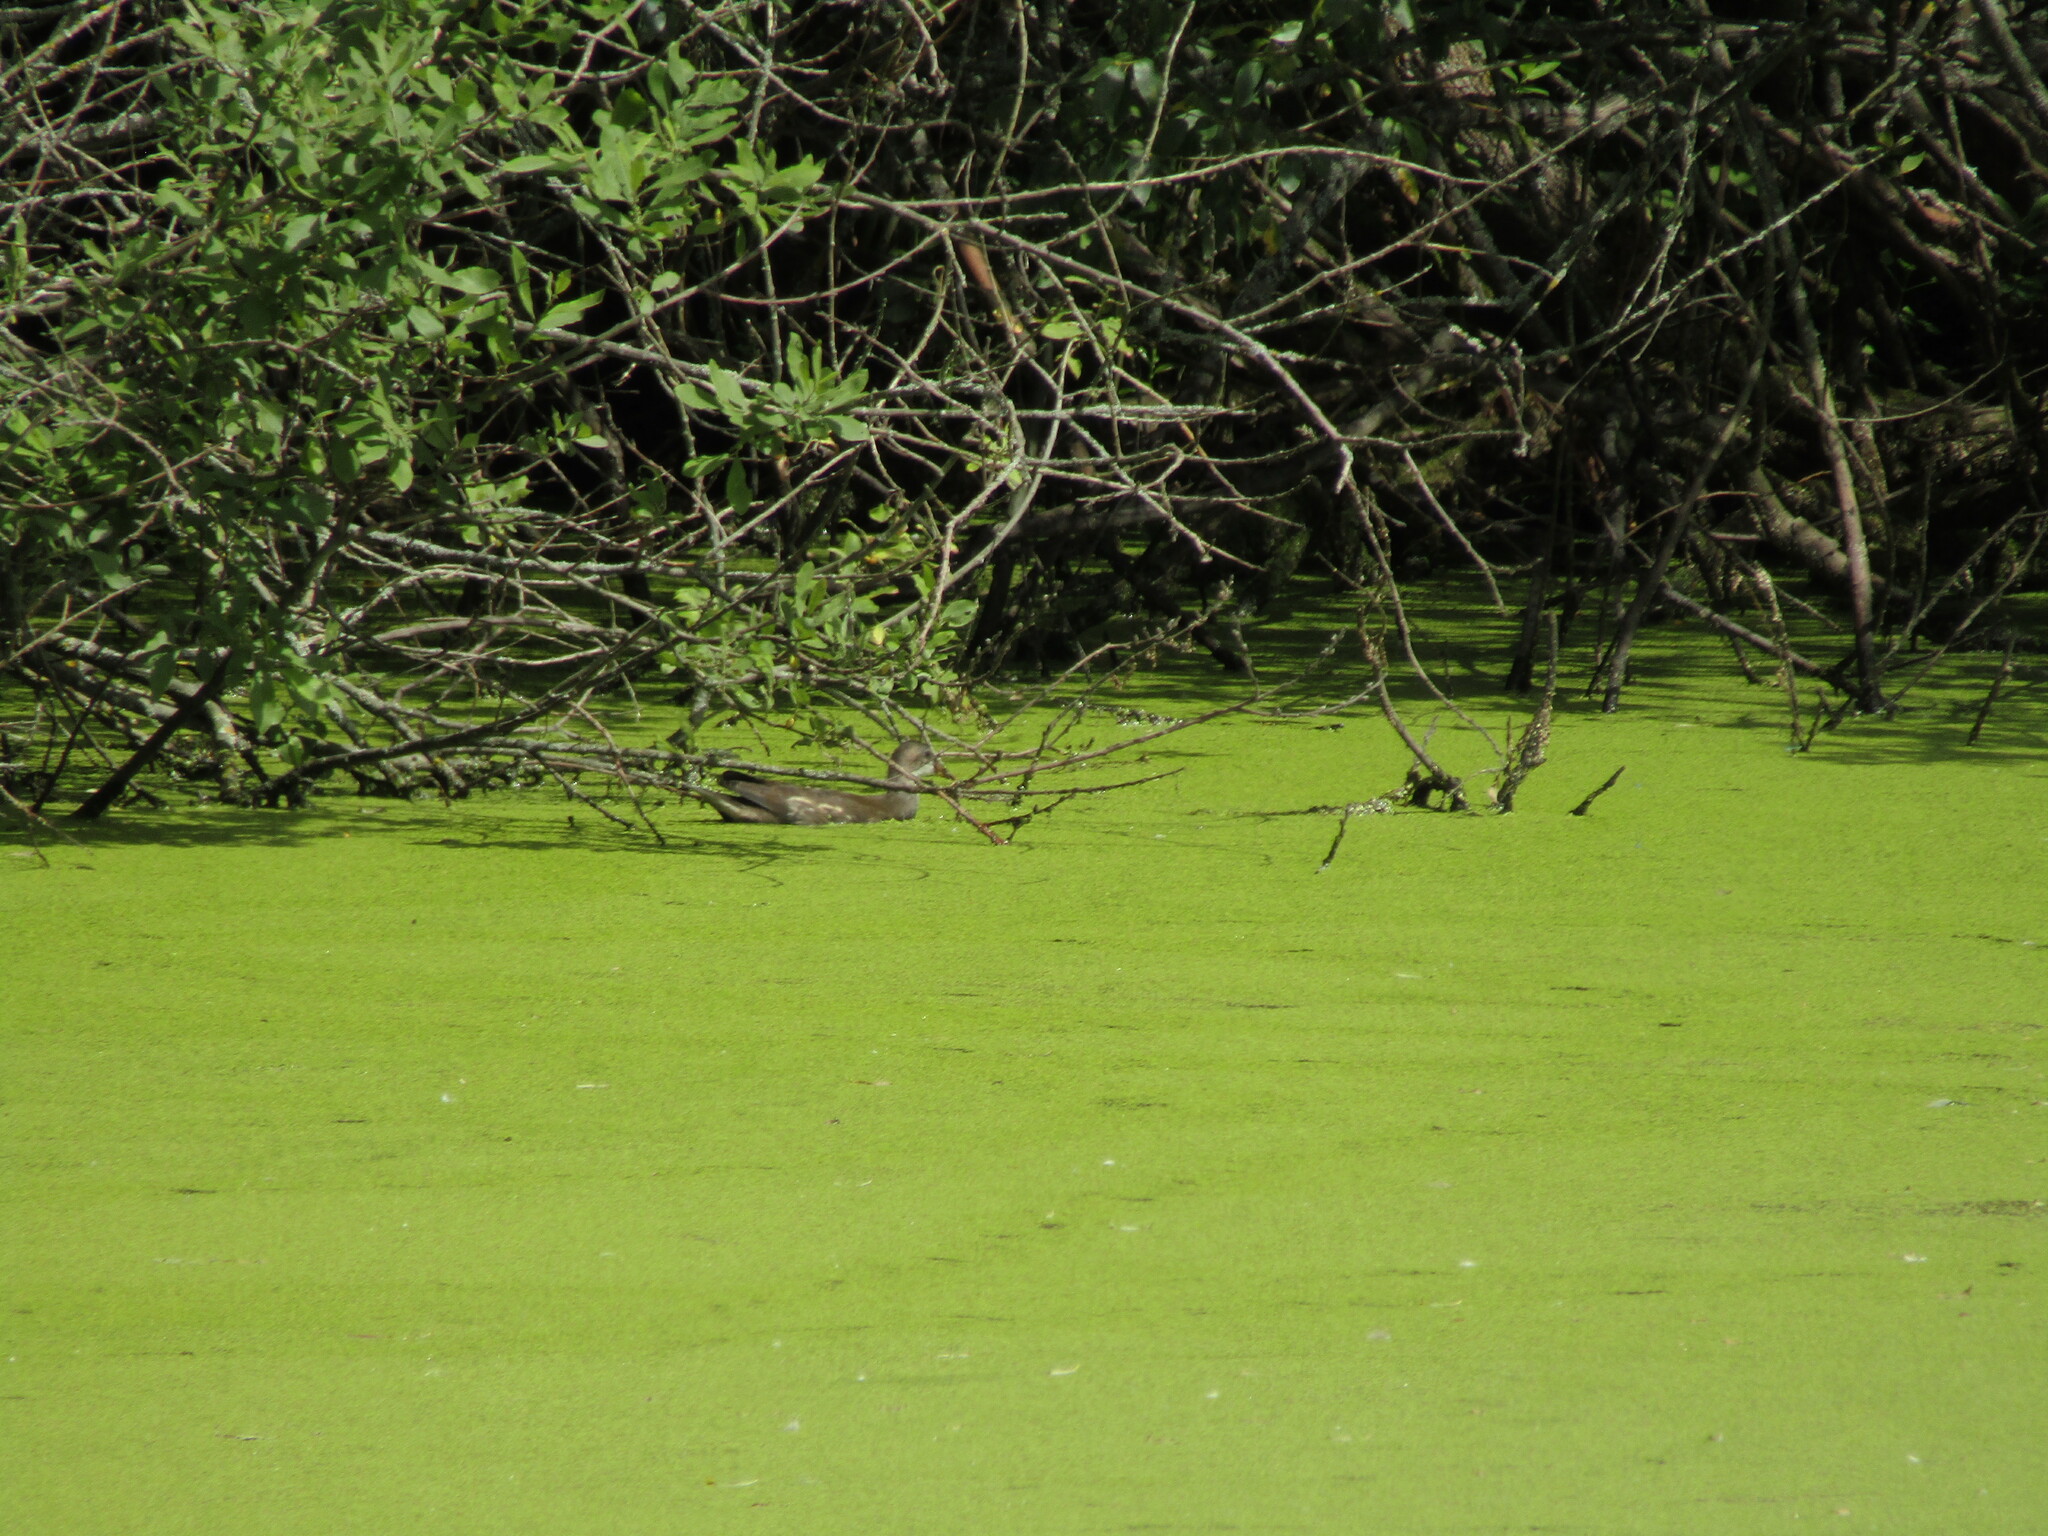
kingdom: Animalia
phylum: Chordata
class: Aves
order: Gruiformes
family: Rallidae
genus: Gallinula
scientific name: Gallinula chloropus
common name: Common moorhen
